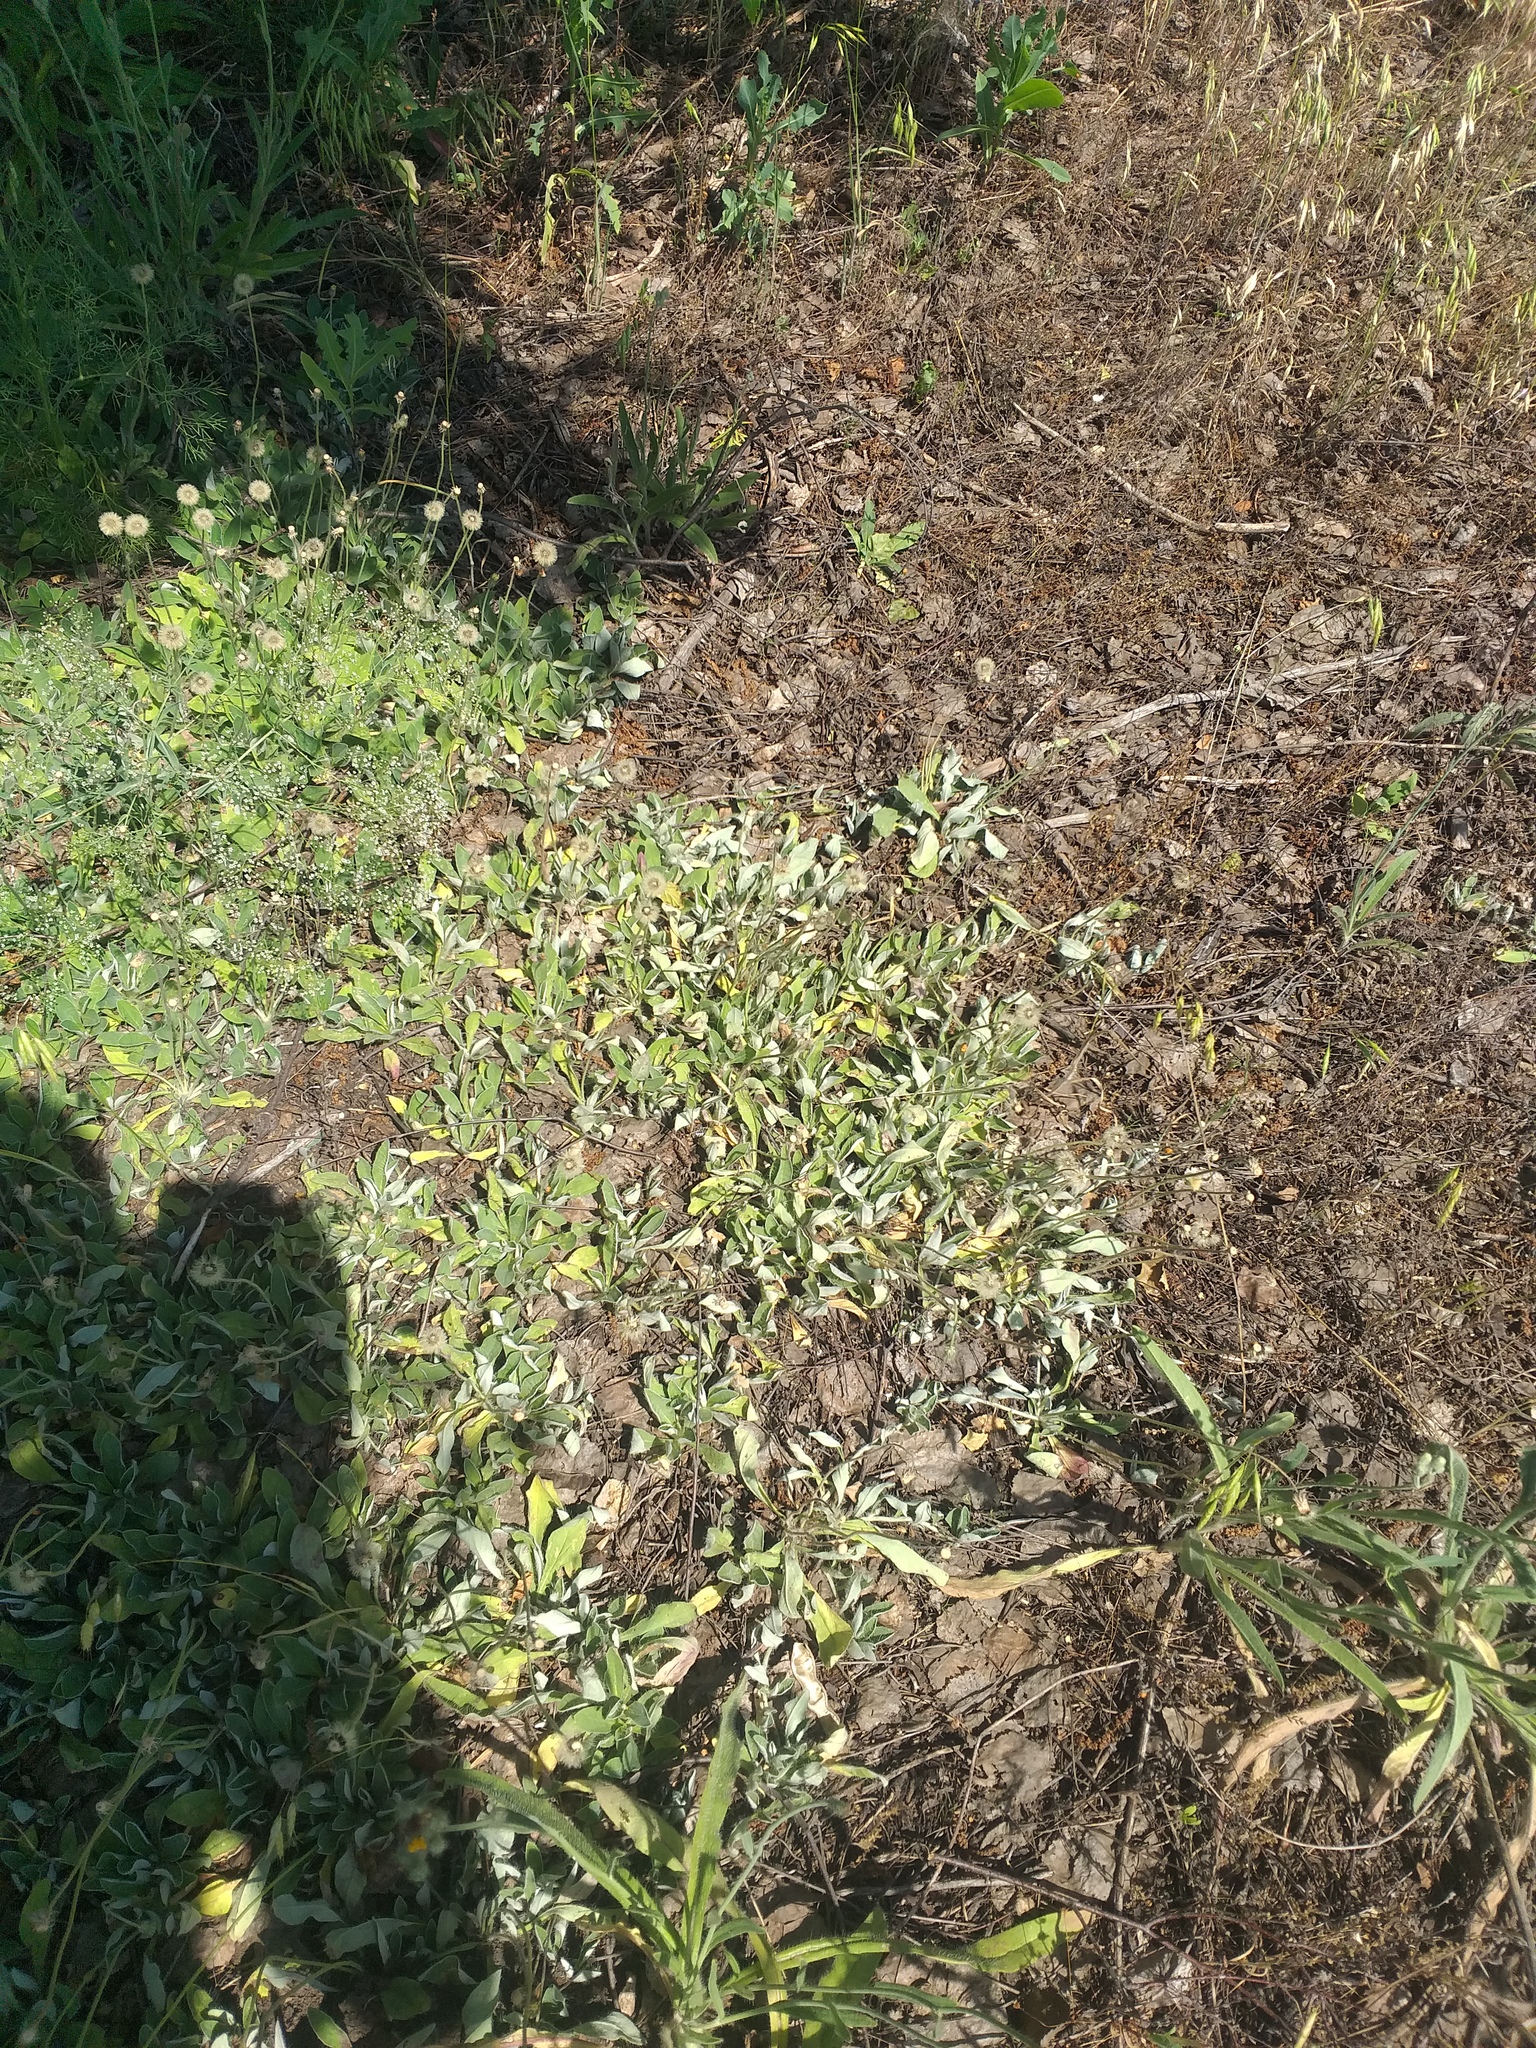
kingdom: Plantae
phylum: Tracheophyta
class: Magnoliopsida
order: Asterales
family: Asteraceae
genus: Pilosella
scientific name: Pilosella officinarum
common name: Mouse-ear hawkweed
